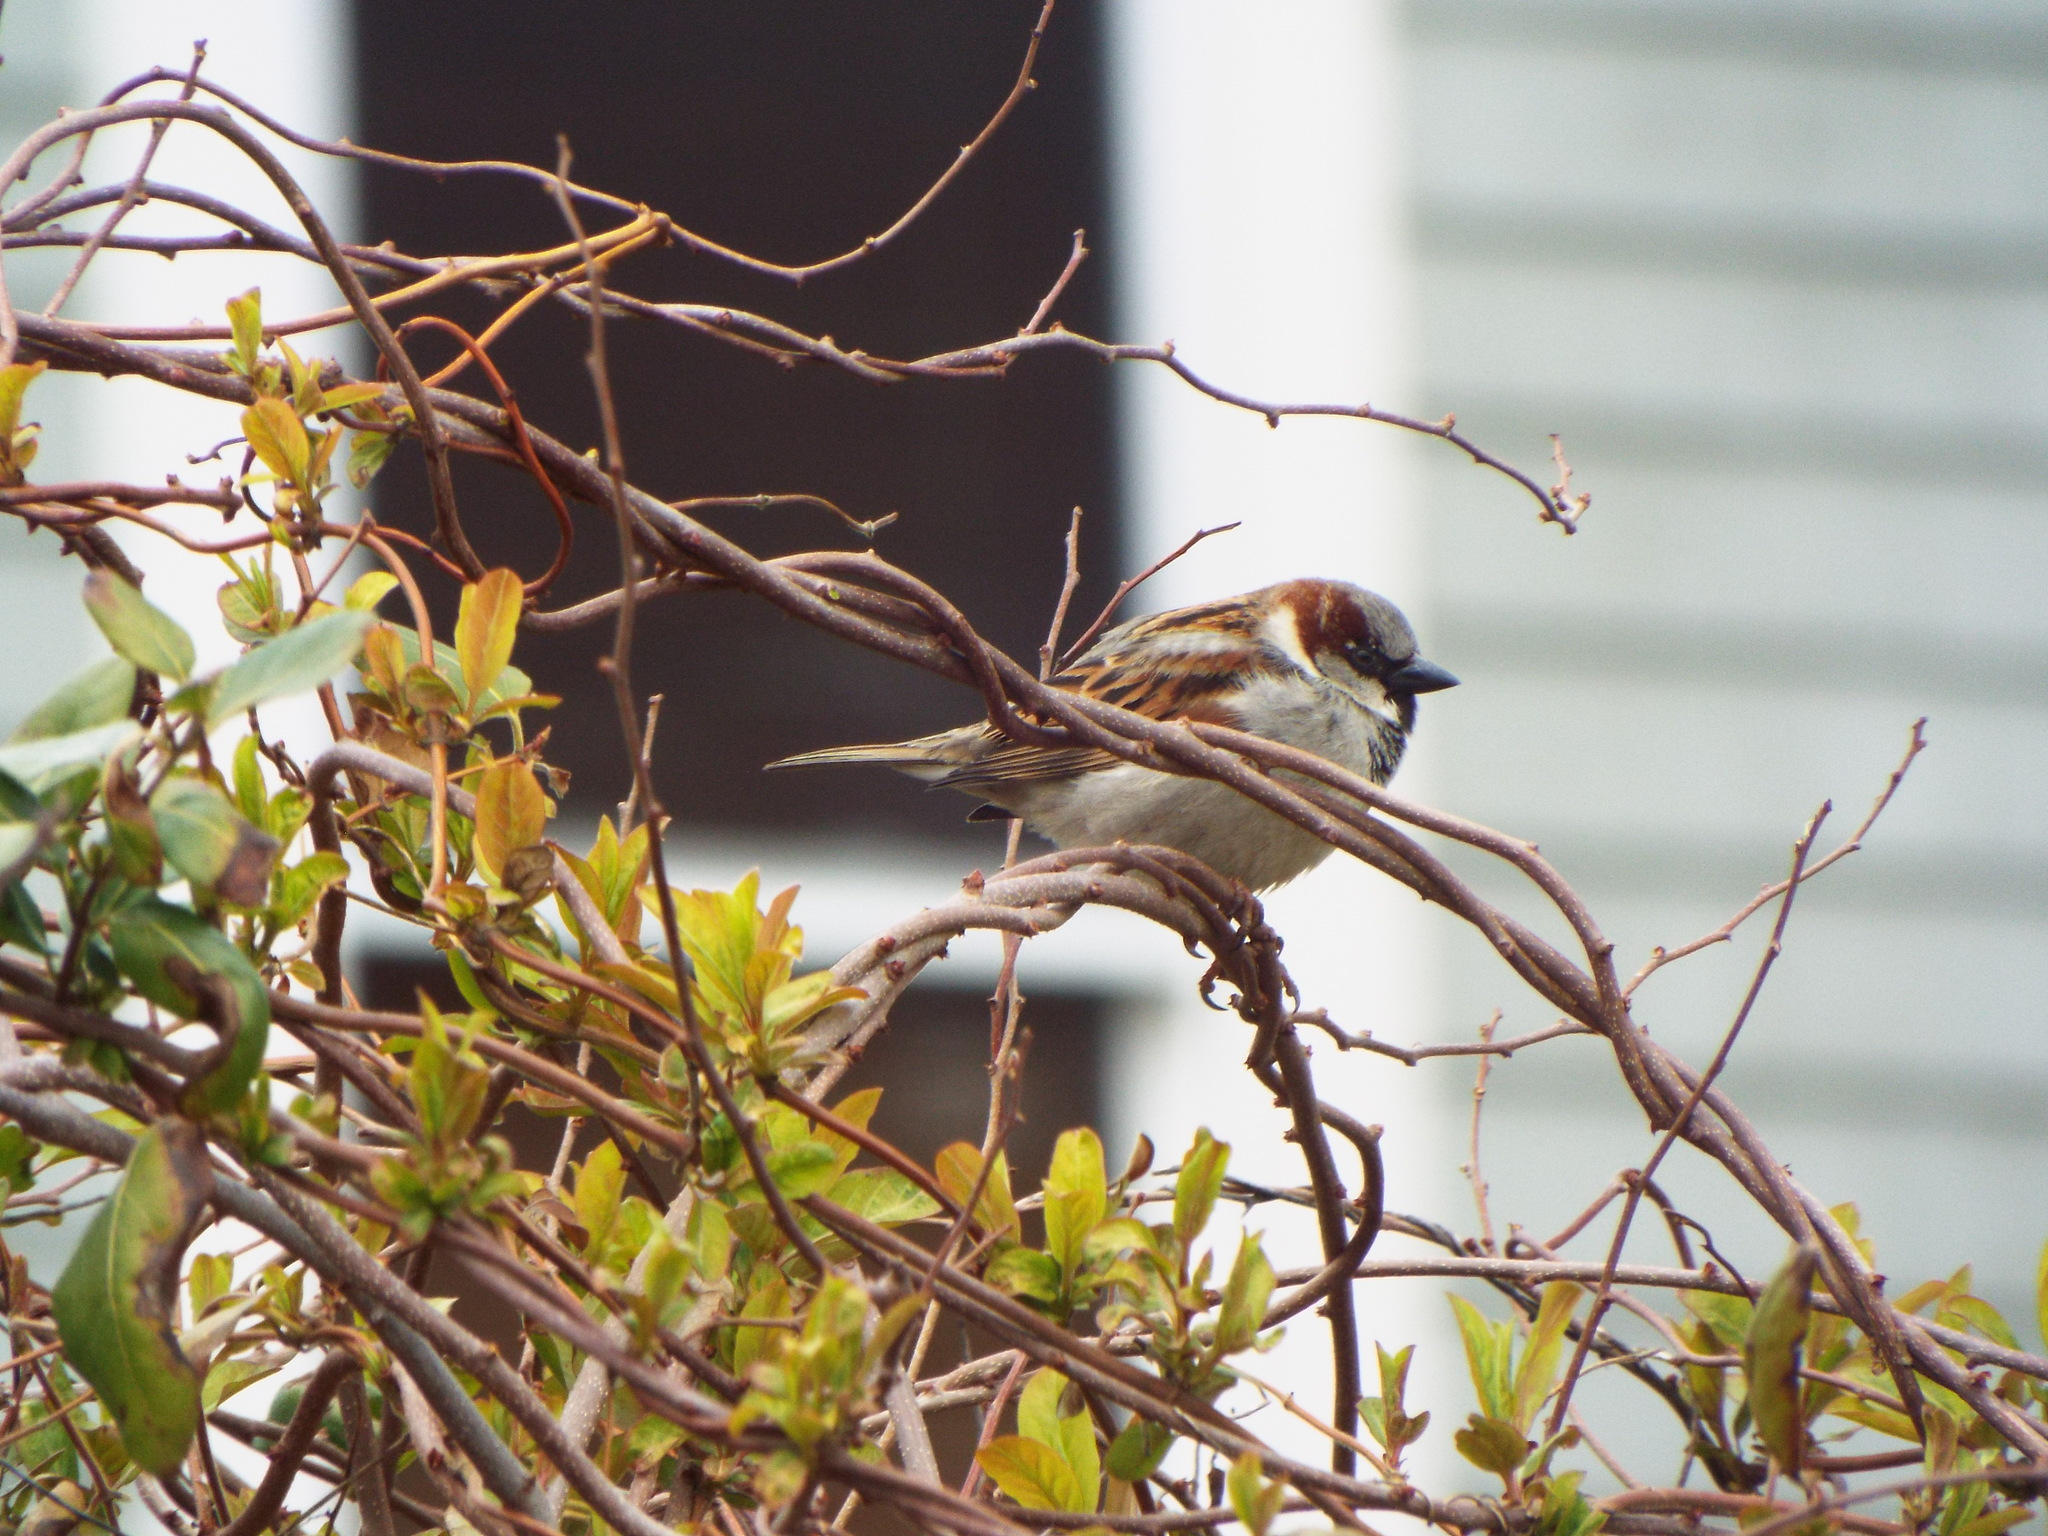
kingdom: Animalia
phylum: Chordata
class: Aves
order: Passeriformes
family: Passeridae
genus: Passer
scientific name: Passer domesticus
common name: House sparrow
